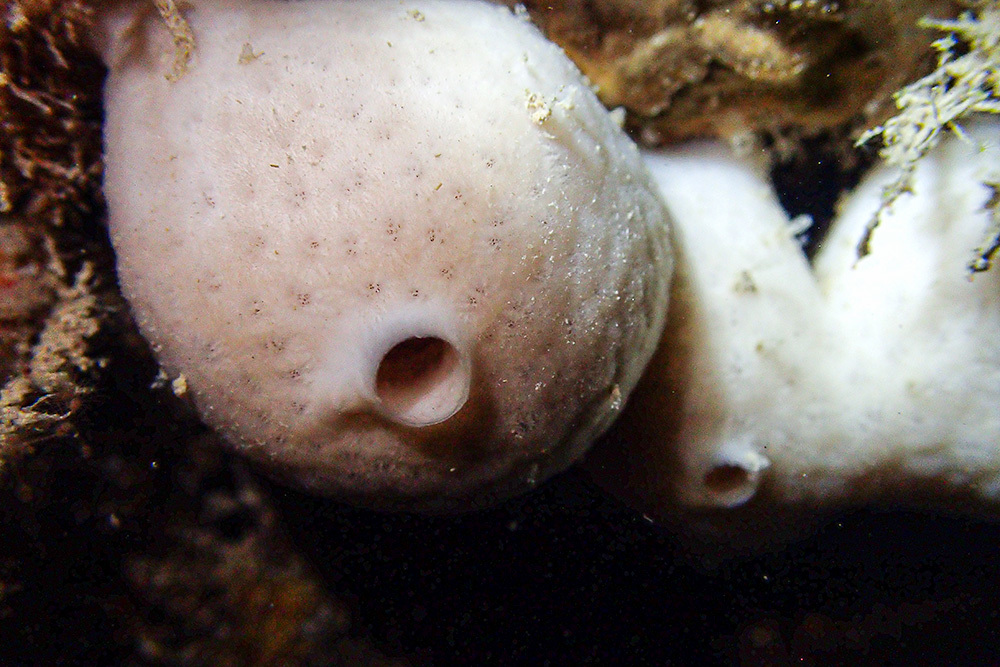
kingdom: Animalia
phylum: Porifera
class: Demospongiae
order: Chondrosiida
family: Chondrosiidae
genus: Chondrosia
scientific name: Chondrosia reniformis
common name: Chicken liver sponge
